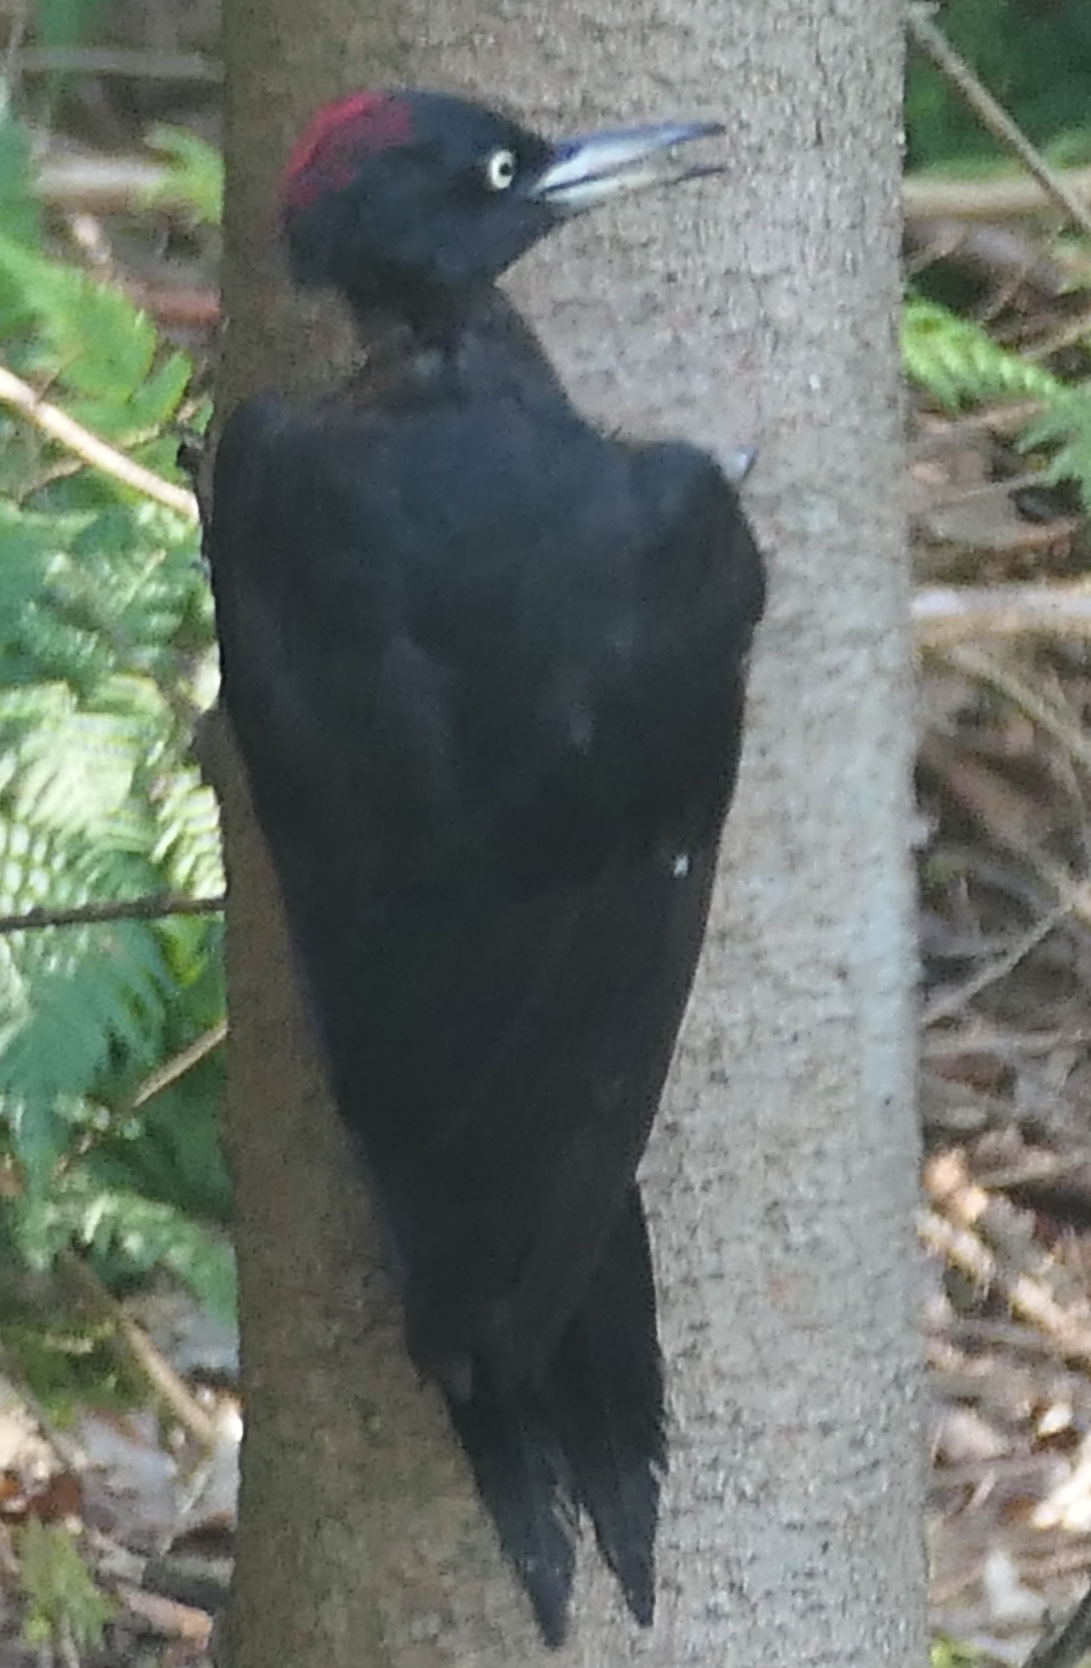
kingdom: Animalia
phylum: Chordata
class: Aves
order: Piciformes
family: Picidae
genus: Dryocopus
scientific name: Dryocopus martius
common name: Black woodpecker
